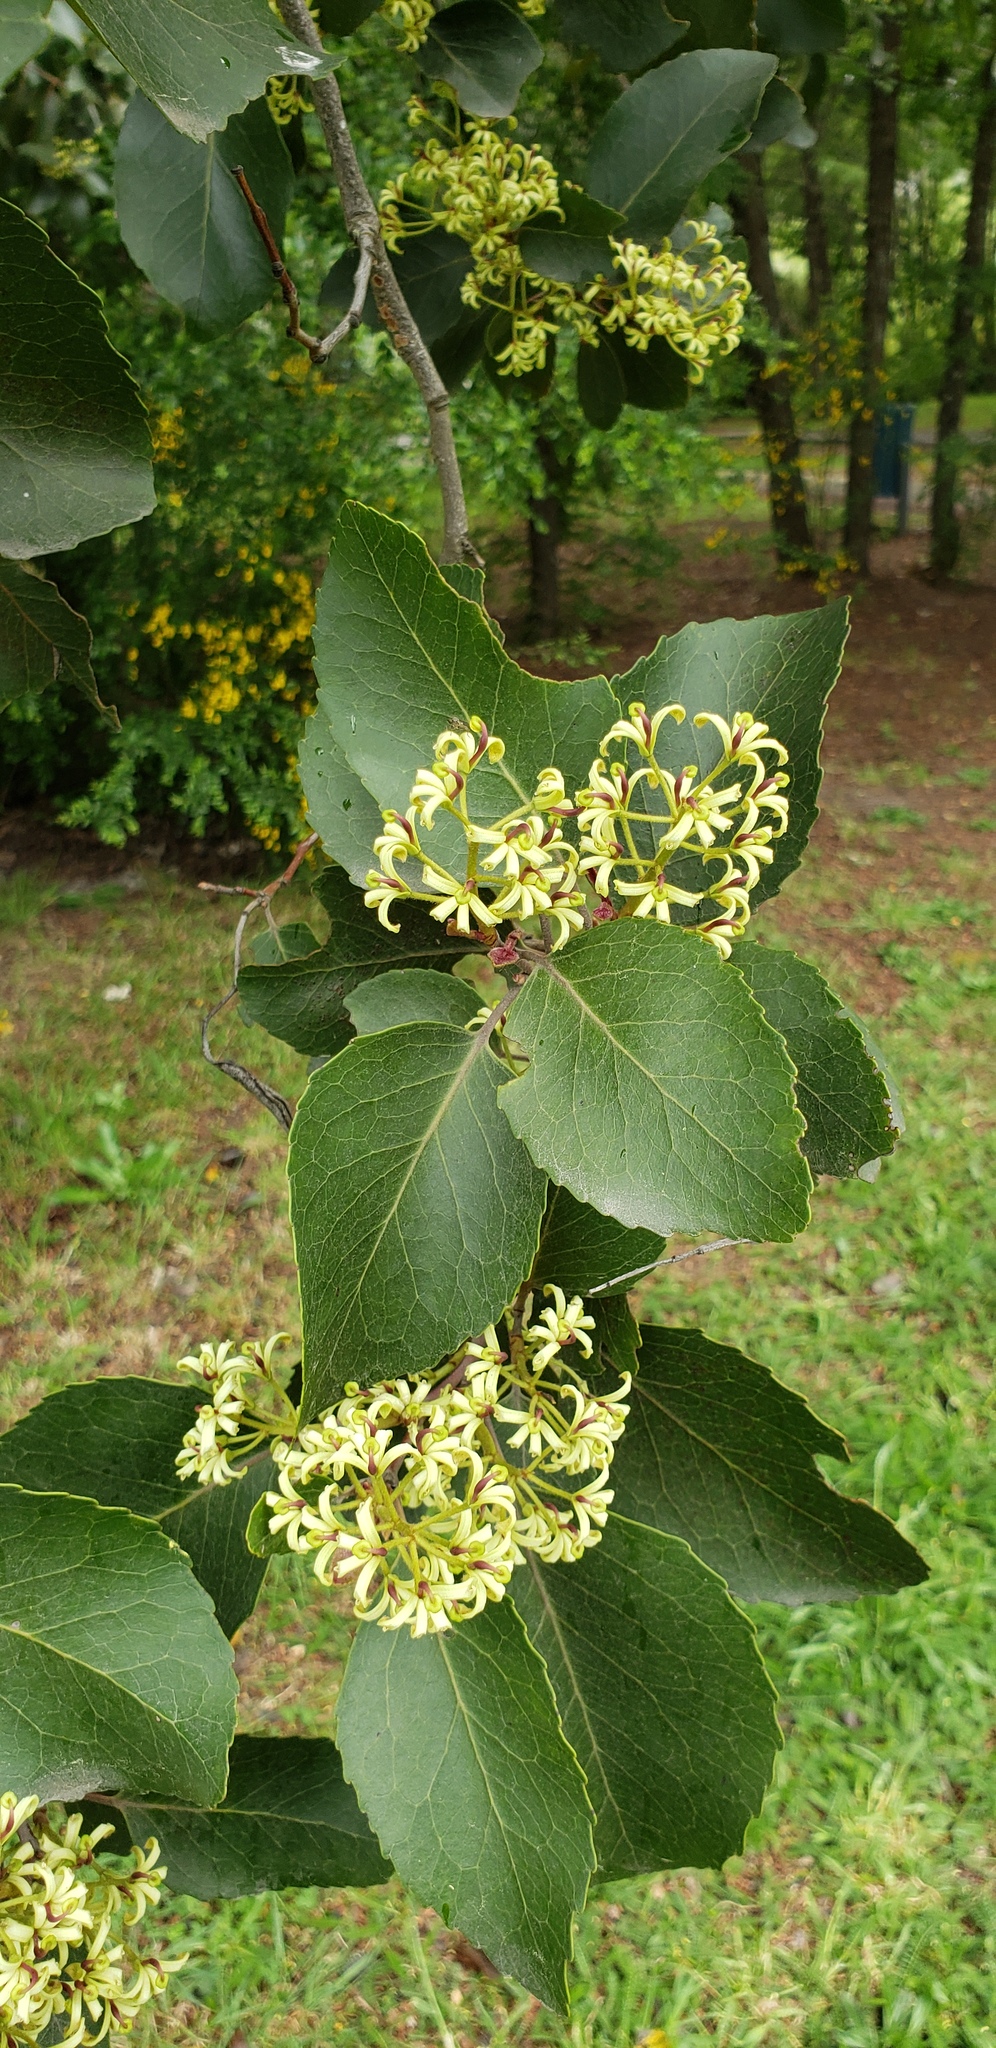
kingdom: Plantae
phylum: Tracheophyta
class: Magnoliopsida
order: Proteales
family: Proteaceae
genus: Lomatia
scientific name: Lomatia hirsuta
